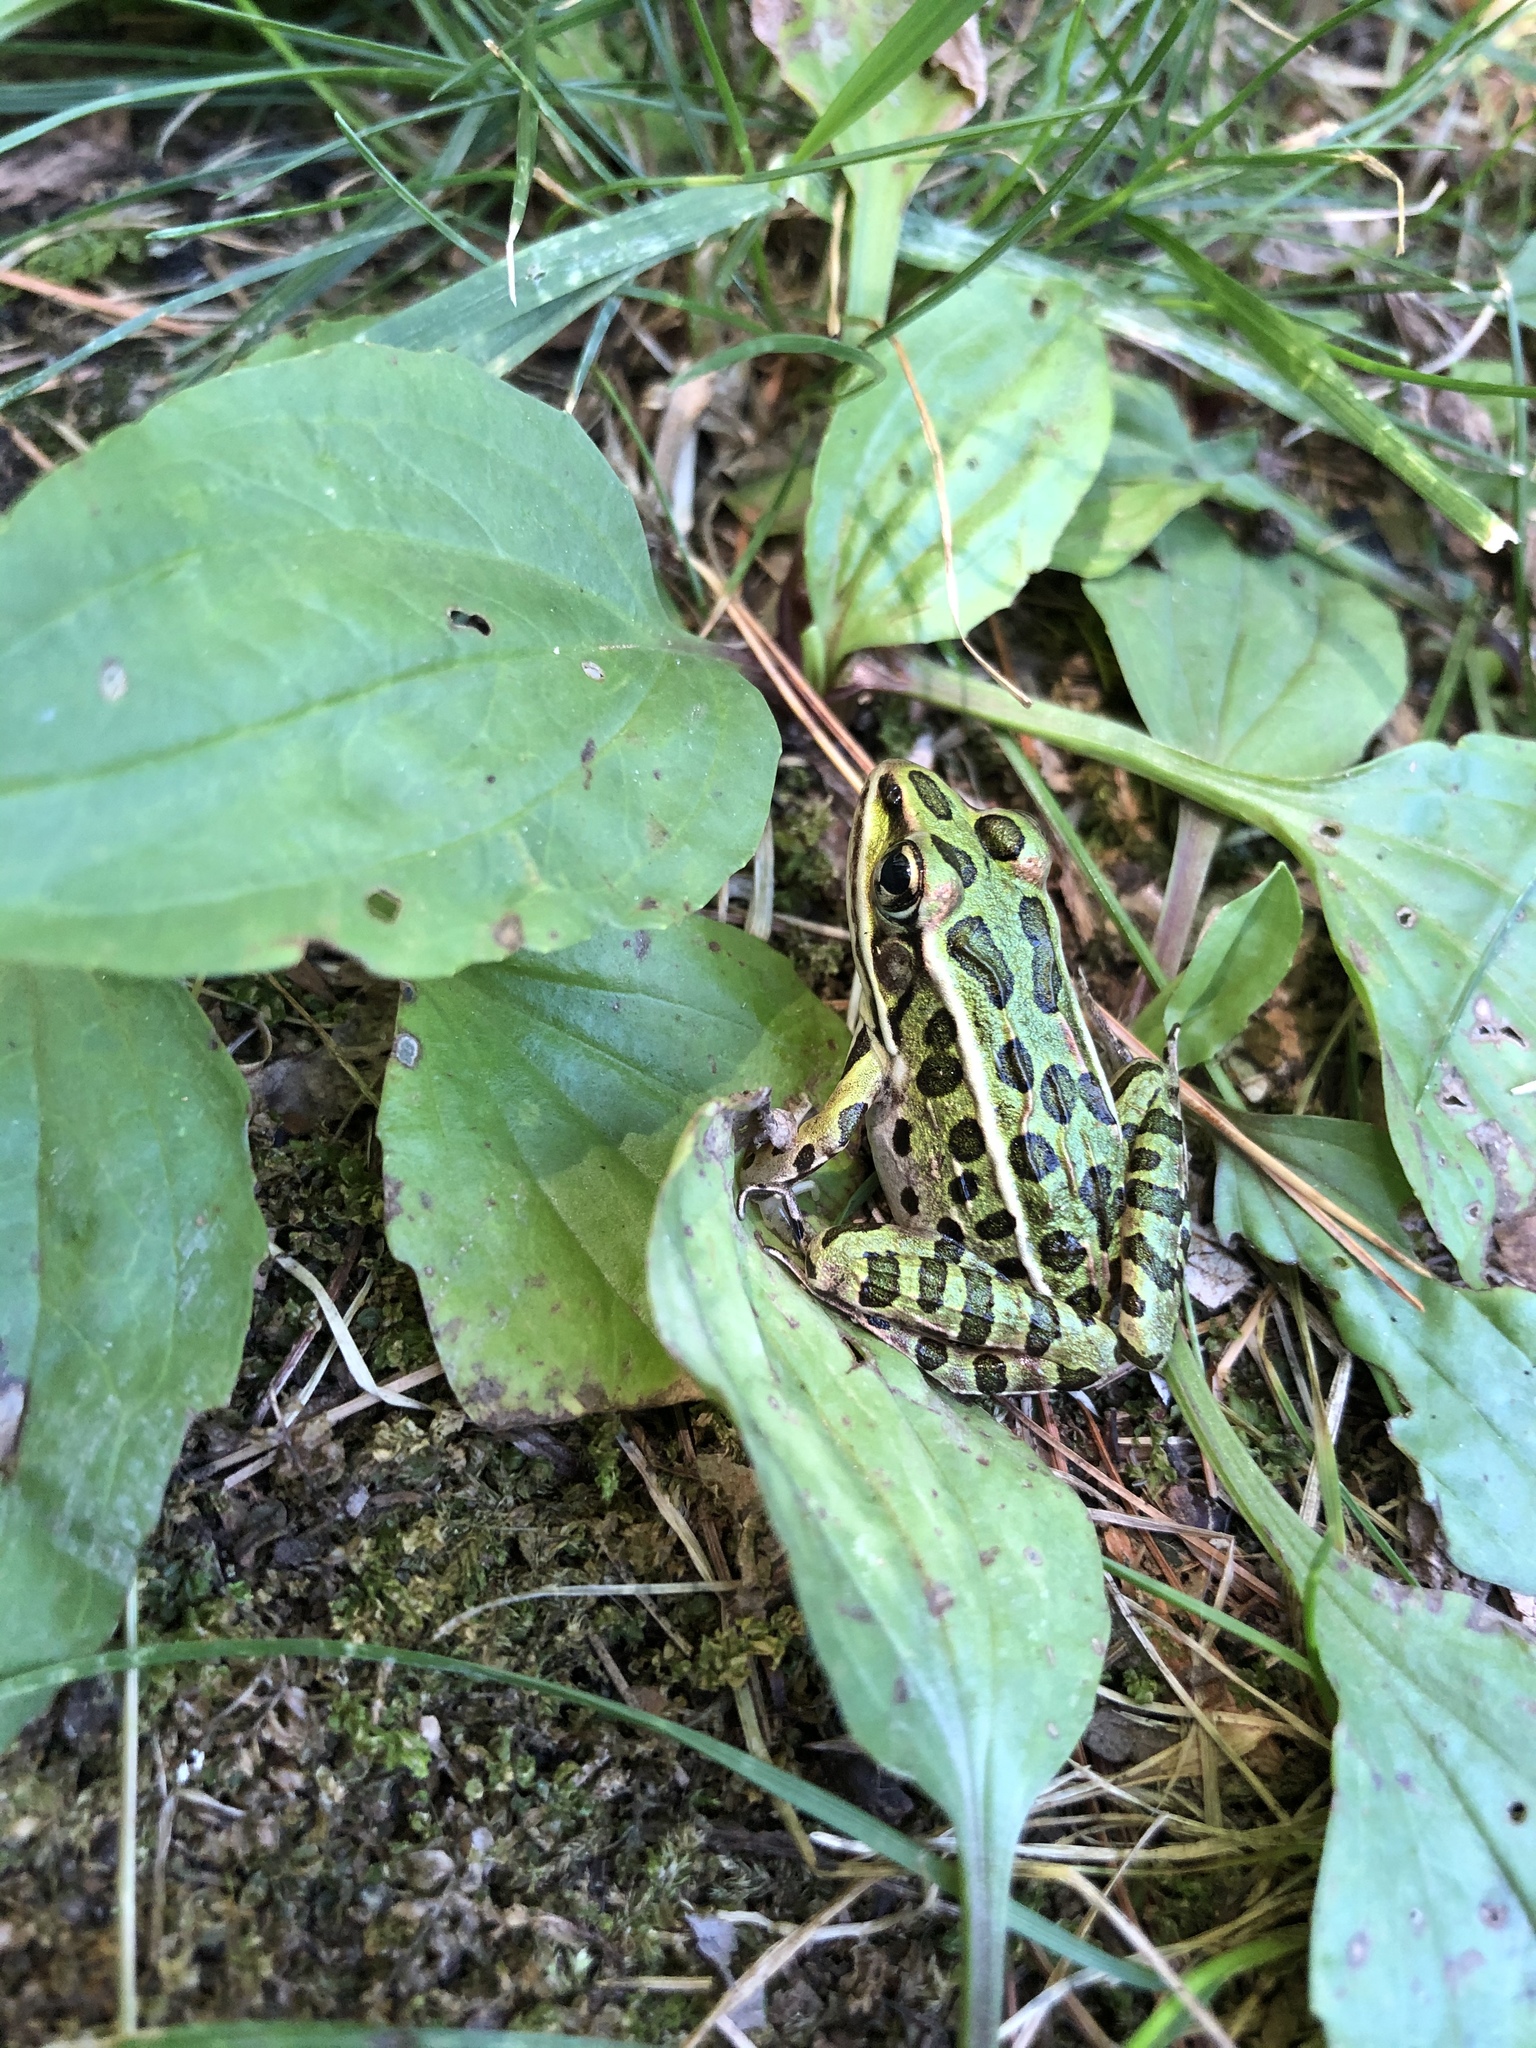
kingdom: Animalia
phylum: Chordata
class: Amphibia
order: Anura
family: Ranidae
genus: Lithobates
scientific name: Lithobates pipiens
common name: Northern leopard frog
